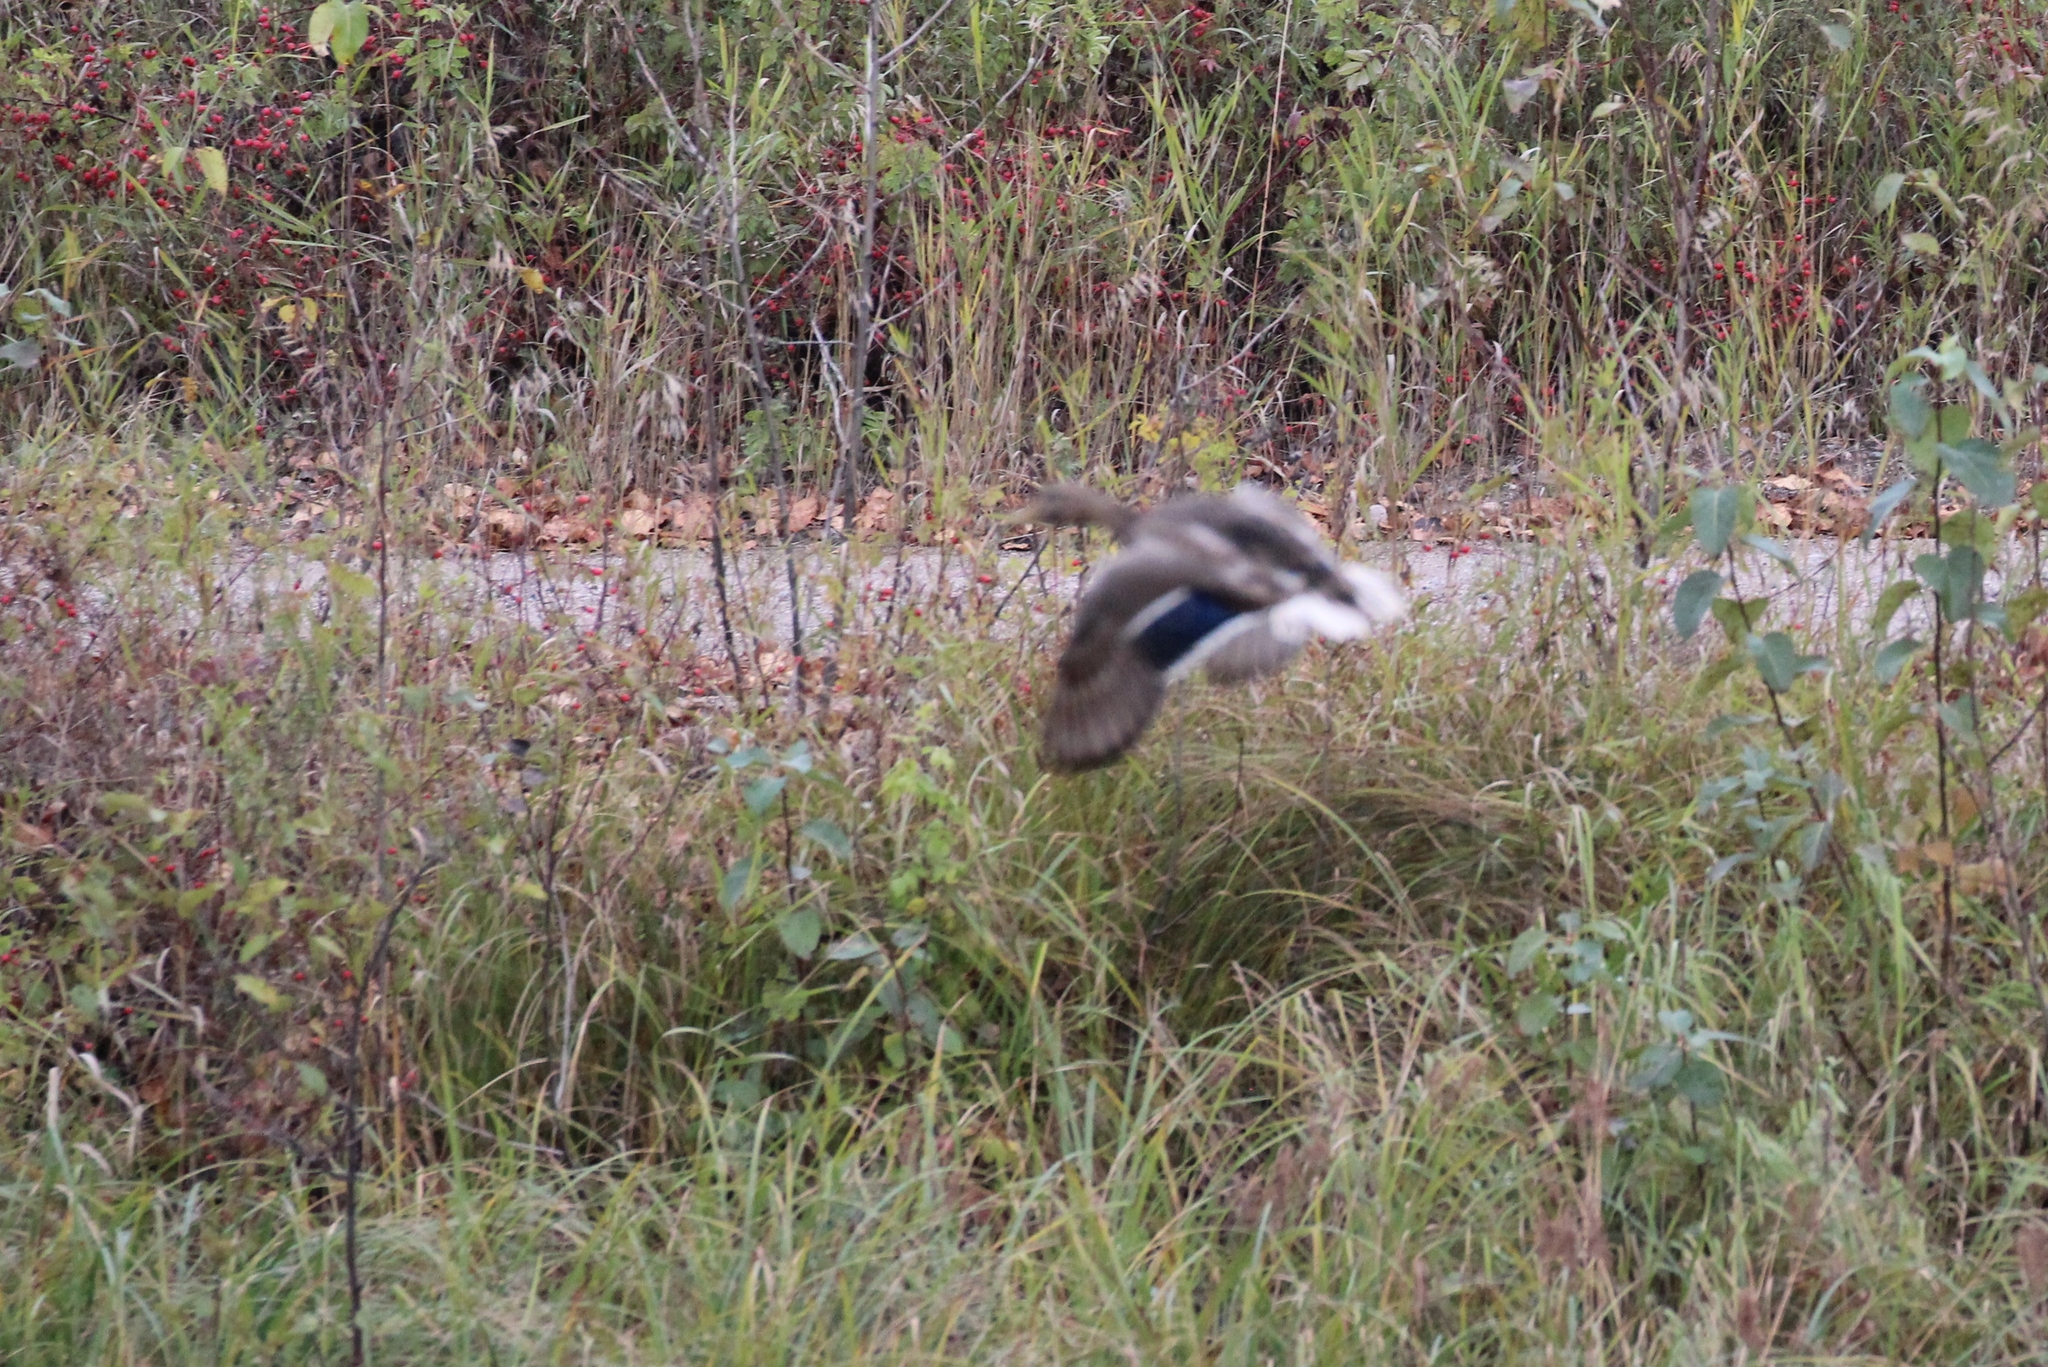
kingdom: Animalia
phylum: Chordata
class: Aves
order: Anseriformes
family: Anatidae
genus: Anas
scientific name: Anas platyrhynchos
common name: Mallard
